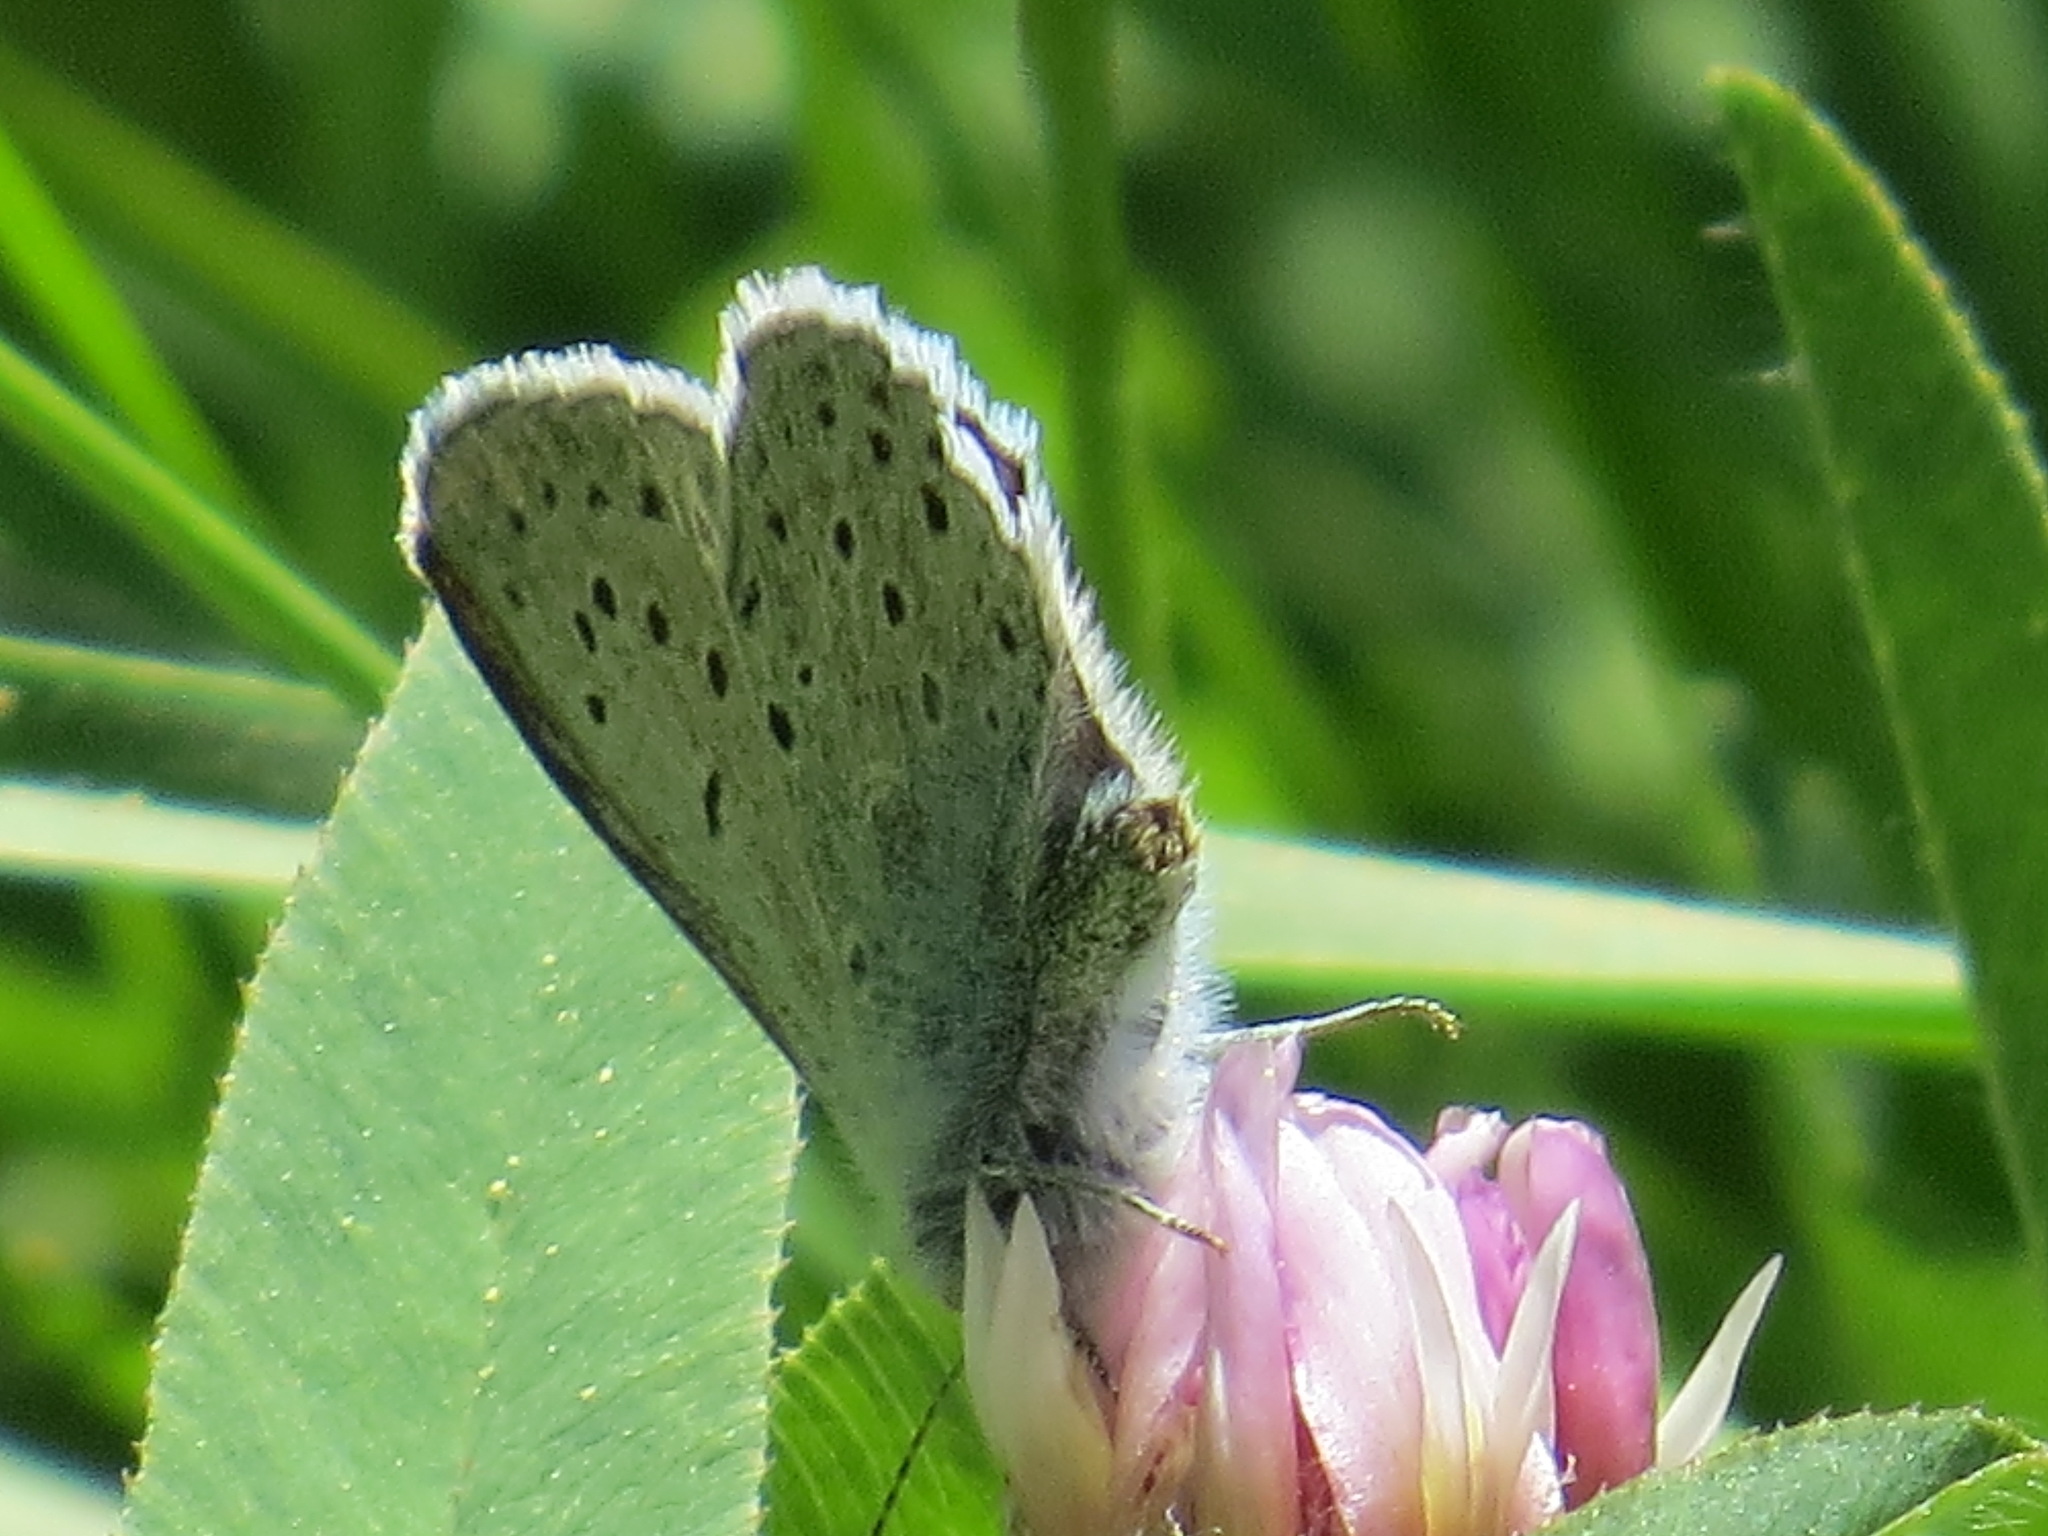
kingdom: Animalia
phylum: Arthropoda
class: Insecta
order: Lepidoptera
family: Lycaenidae
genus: Icaricia
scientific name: Icaricia saepiolus
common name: Greenish blue
